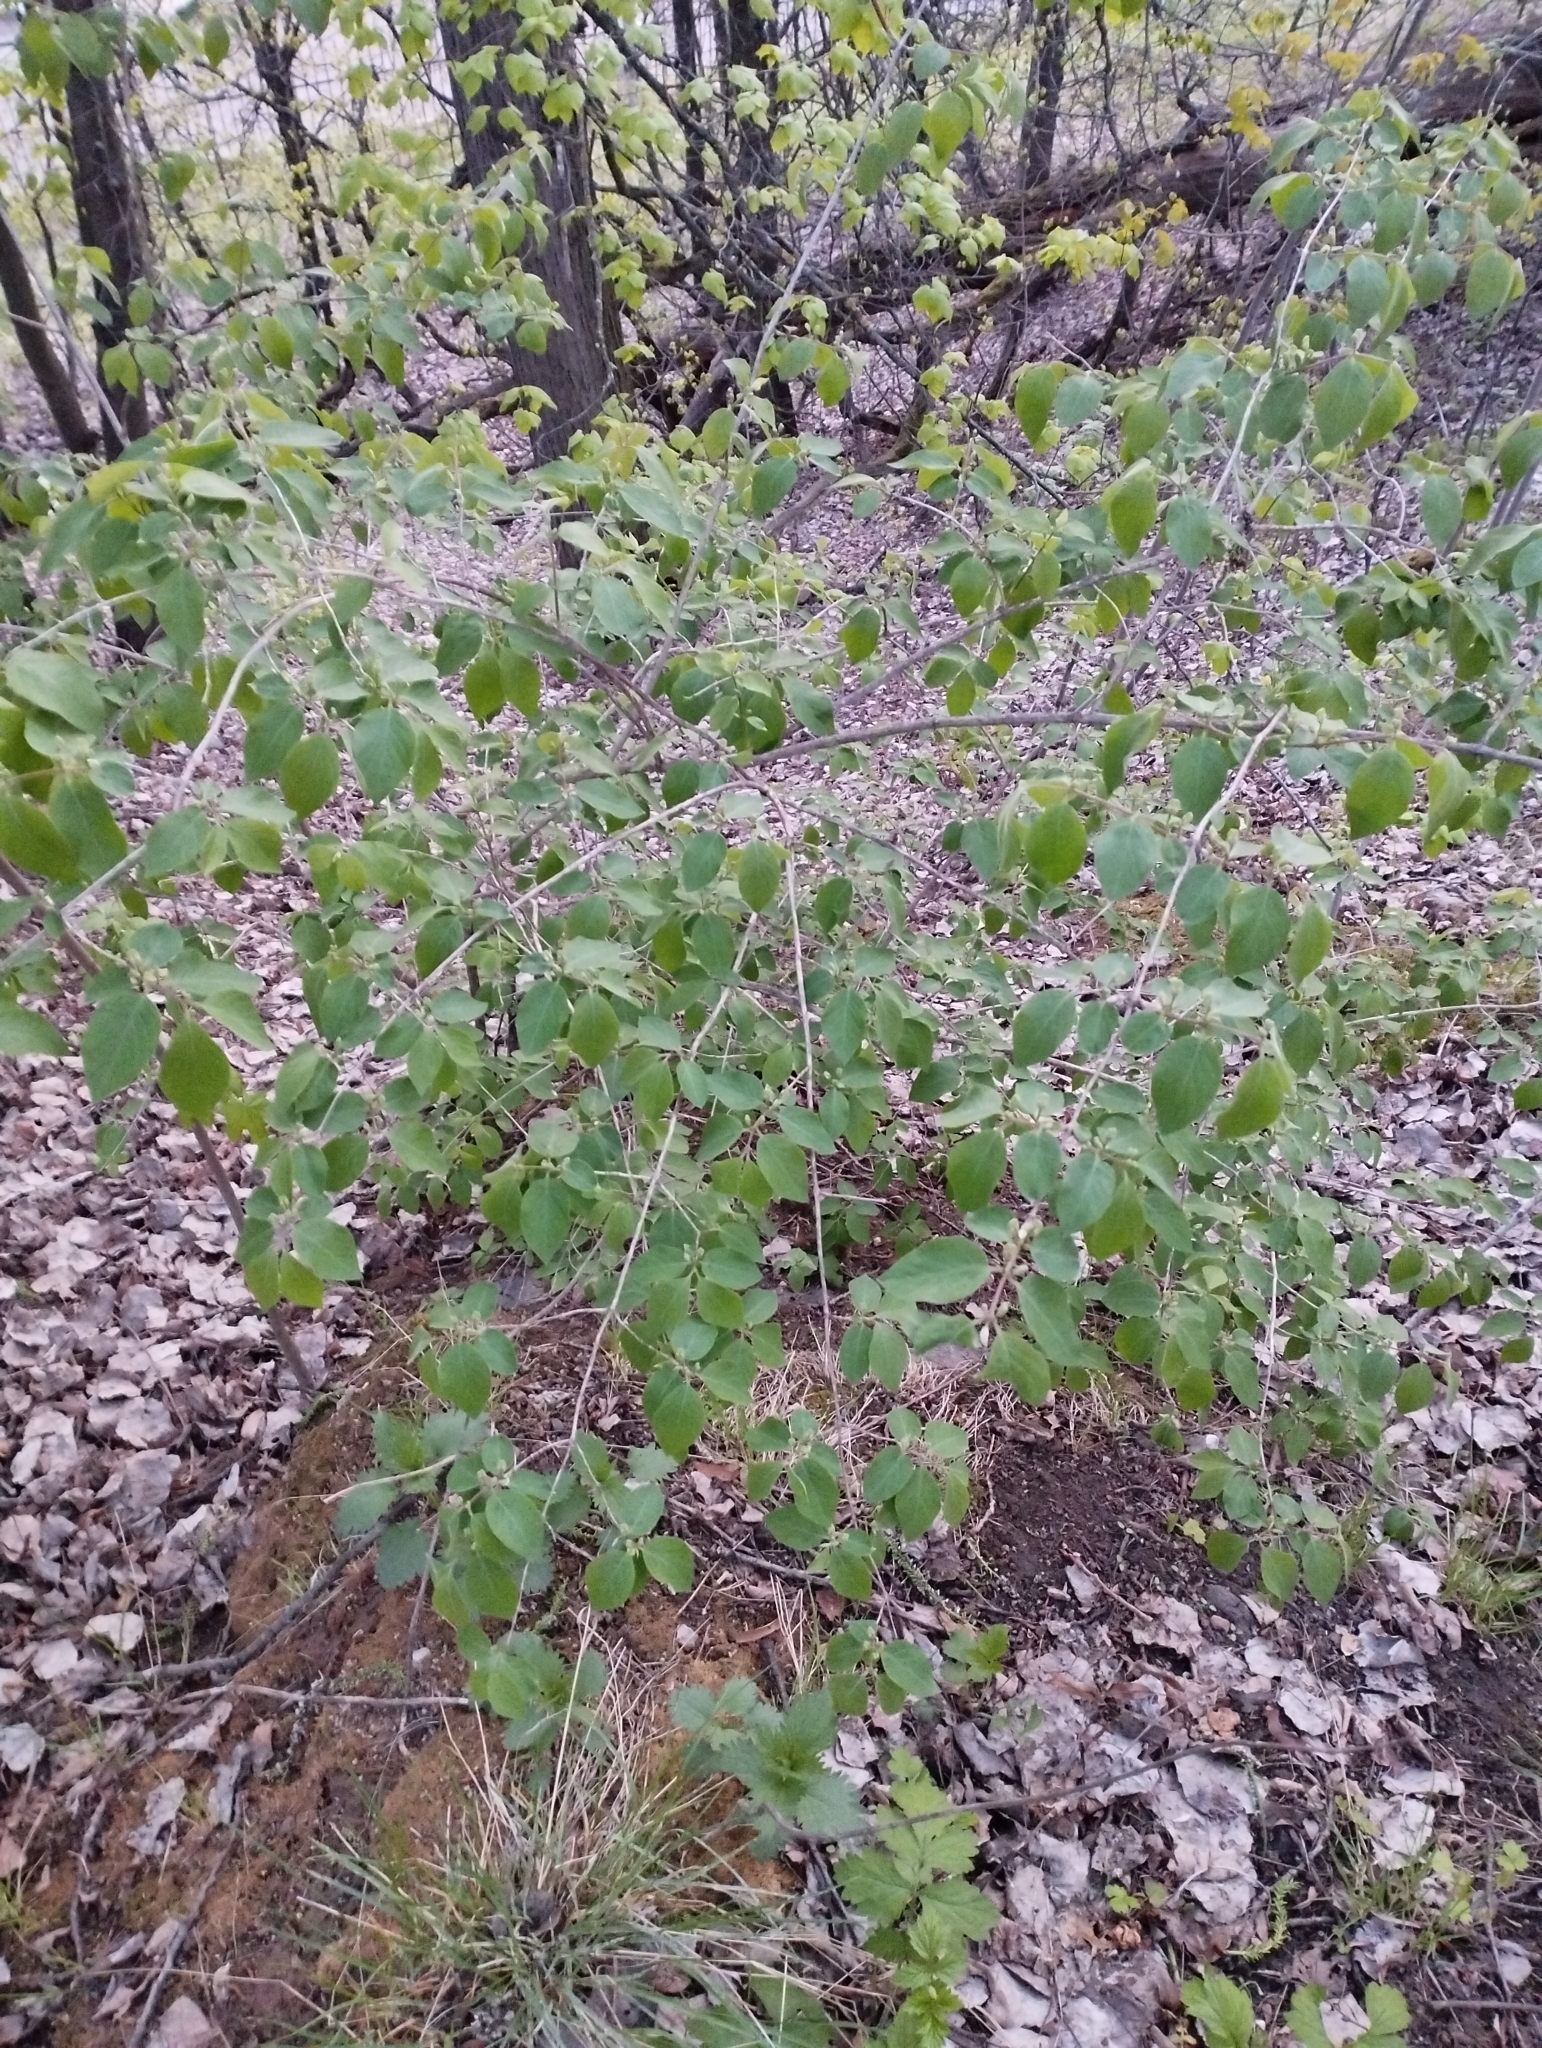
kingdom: Plantae
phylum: Tracheophyta
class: Magnoliopsida
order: Dipsacales
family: Caprifoliaceae
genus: Lonicera
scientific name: Lonicera xylosteum
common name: Fly honeysuckle
